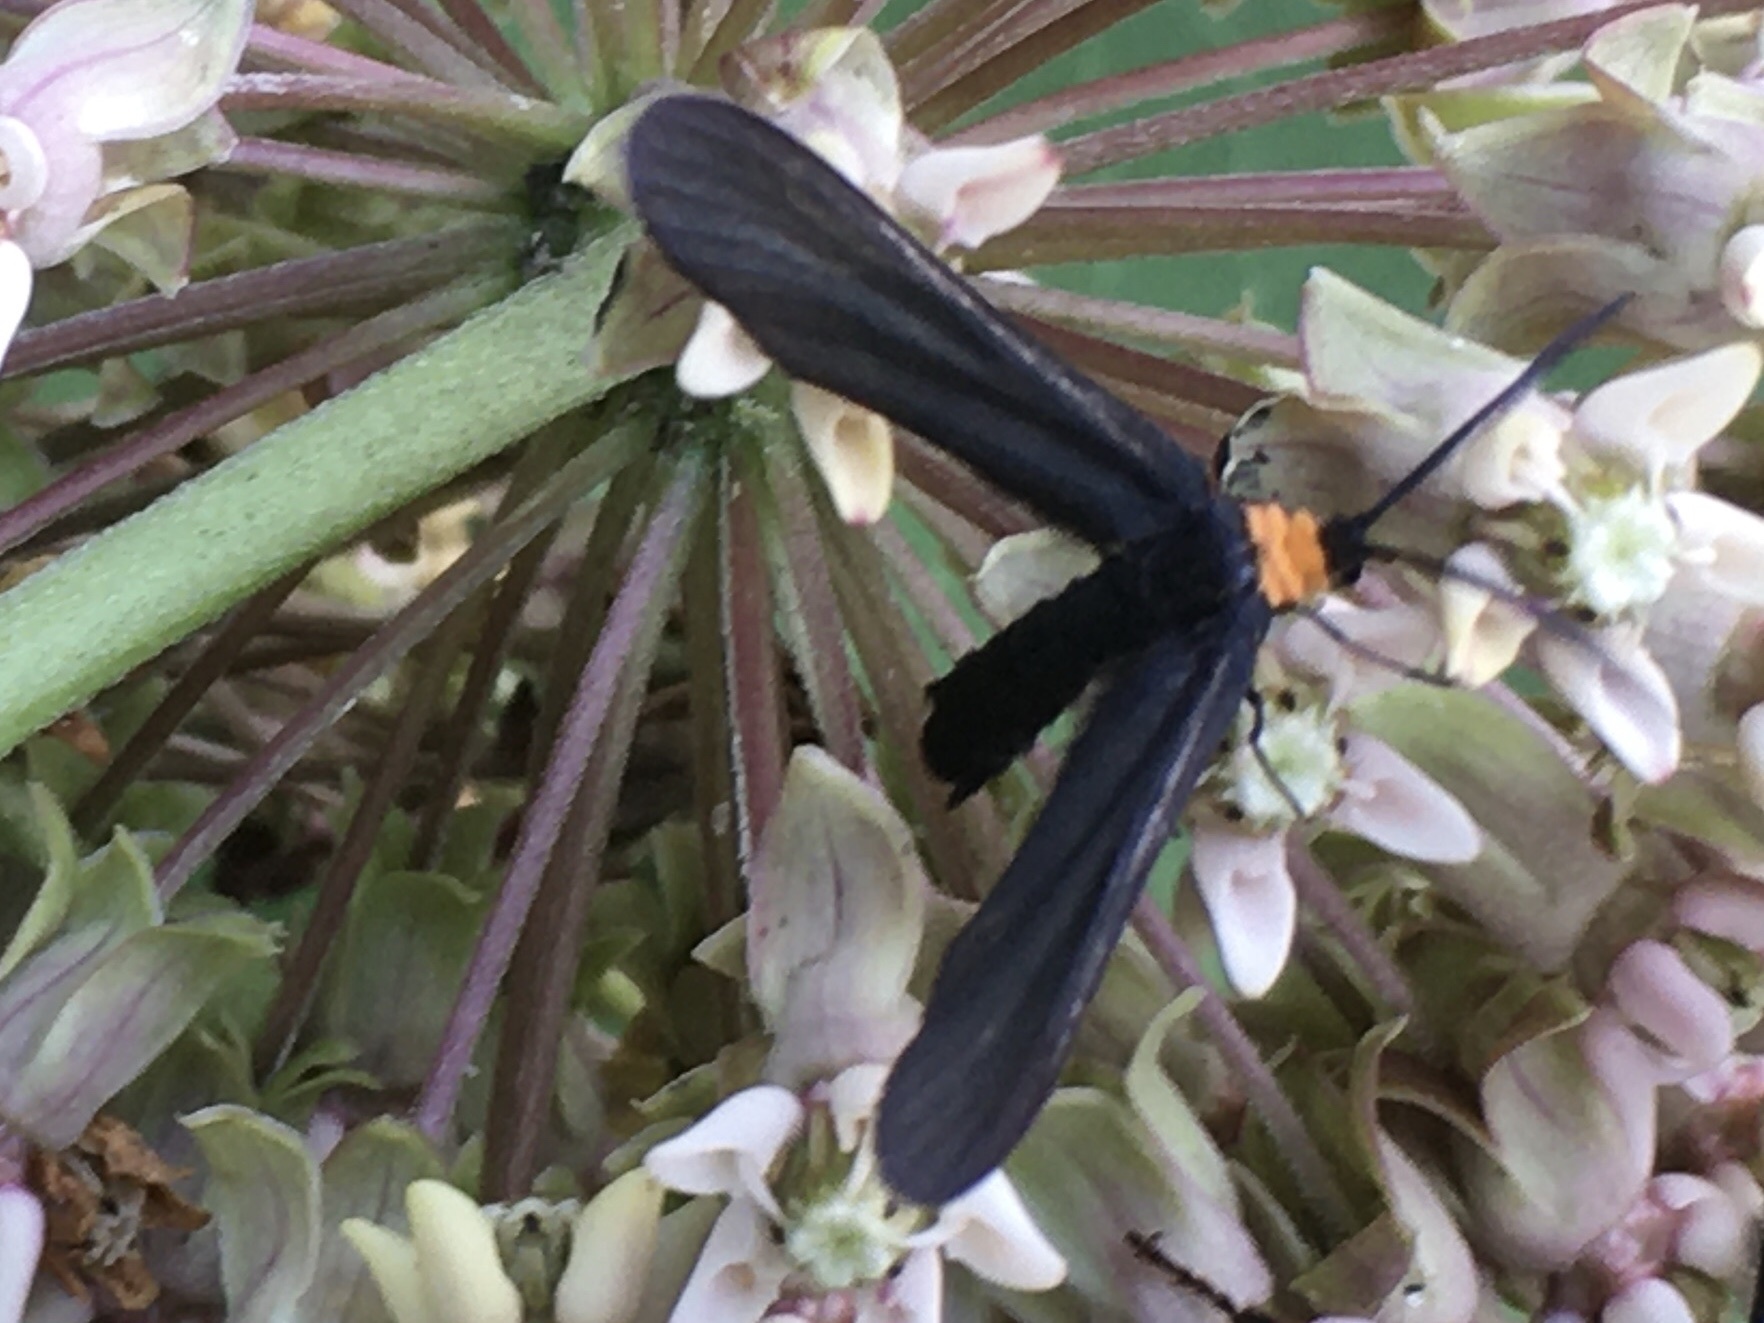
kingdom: Animalia
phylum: Arthropoda
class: Insecta
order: Lepidoptera
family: Zygaenidae
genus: Harrisina
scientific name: Harrisina americana
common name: Grapeleaf skeletonizer moth
